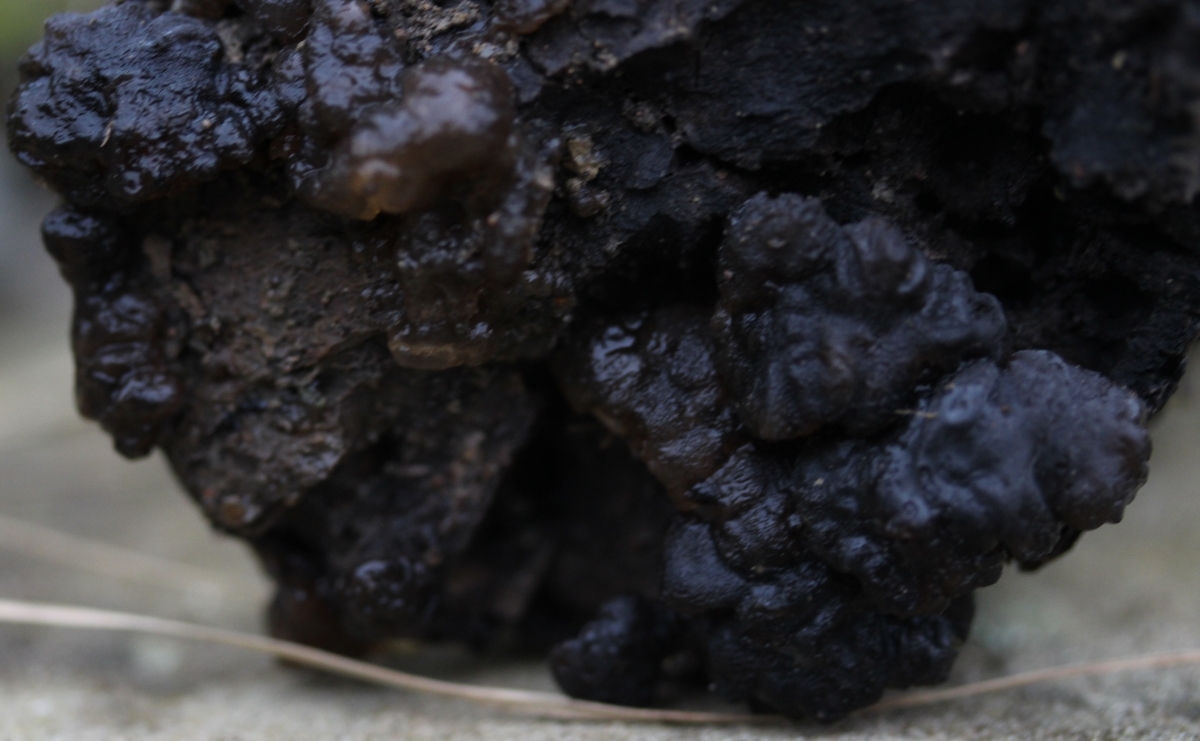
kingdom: Fungi
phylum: Basidiomycota
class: Agaricomycetes
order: Auriculariales
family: Auriculariaceae
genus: Exidia
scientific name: Exidia
